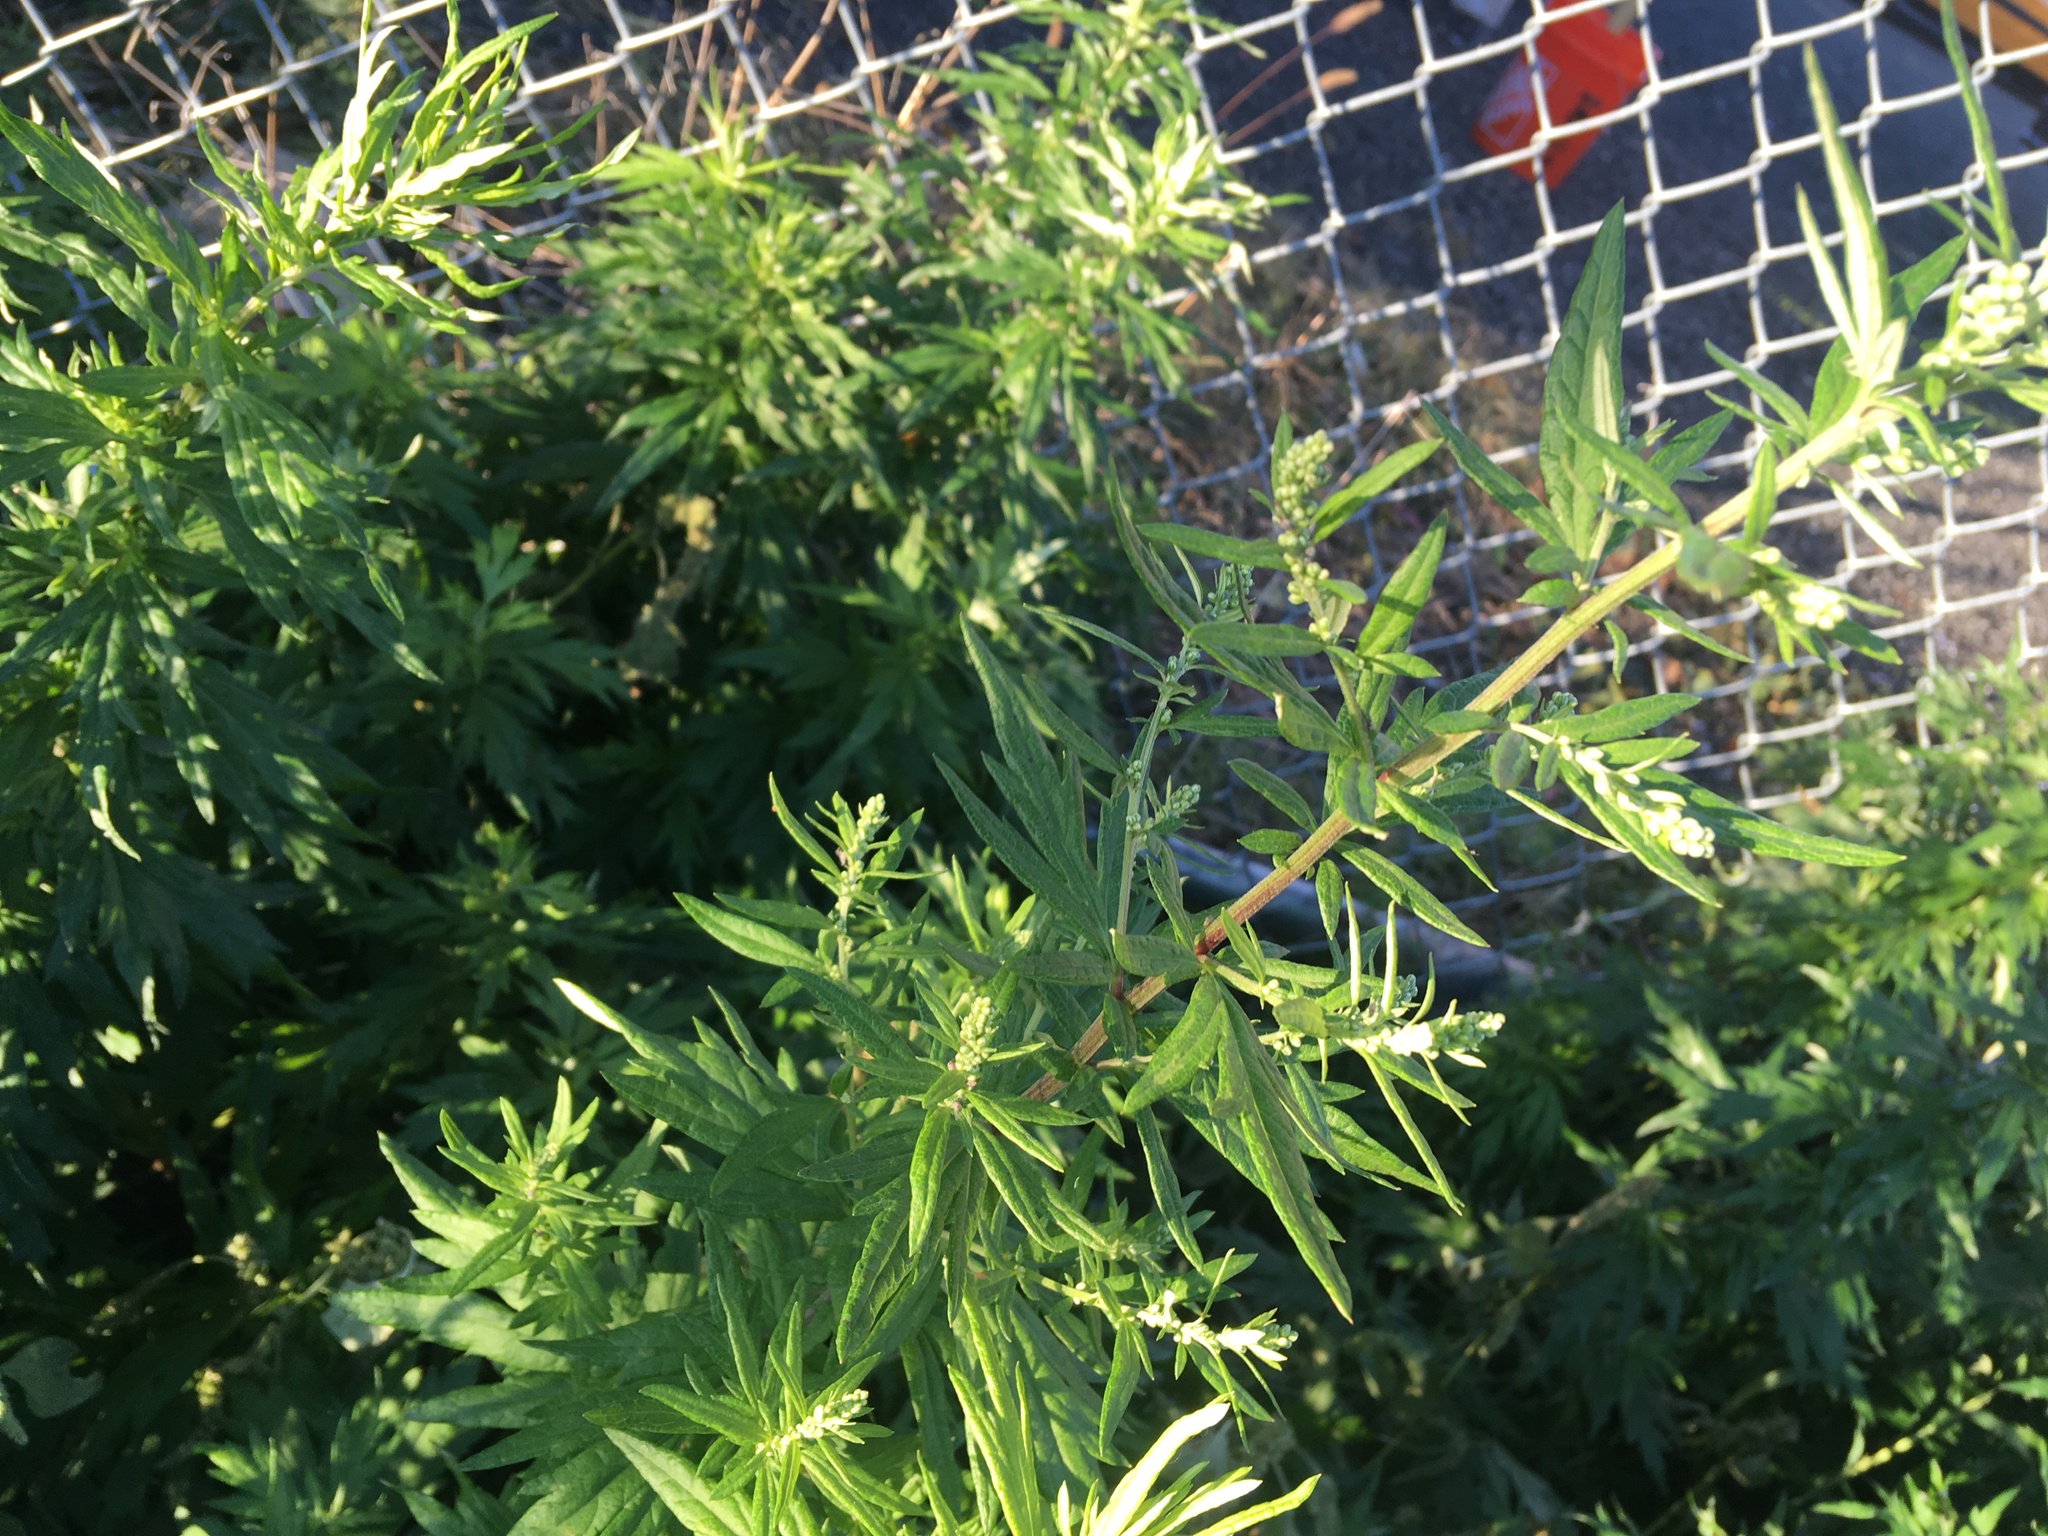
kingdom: Plantae
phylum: Tracheophyta
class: Magnoliopsida
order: Asterales
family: Asteraceae
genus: Artemisia
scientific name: Artemisia vulgaris
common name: Mugwort
